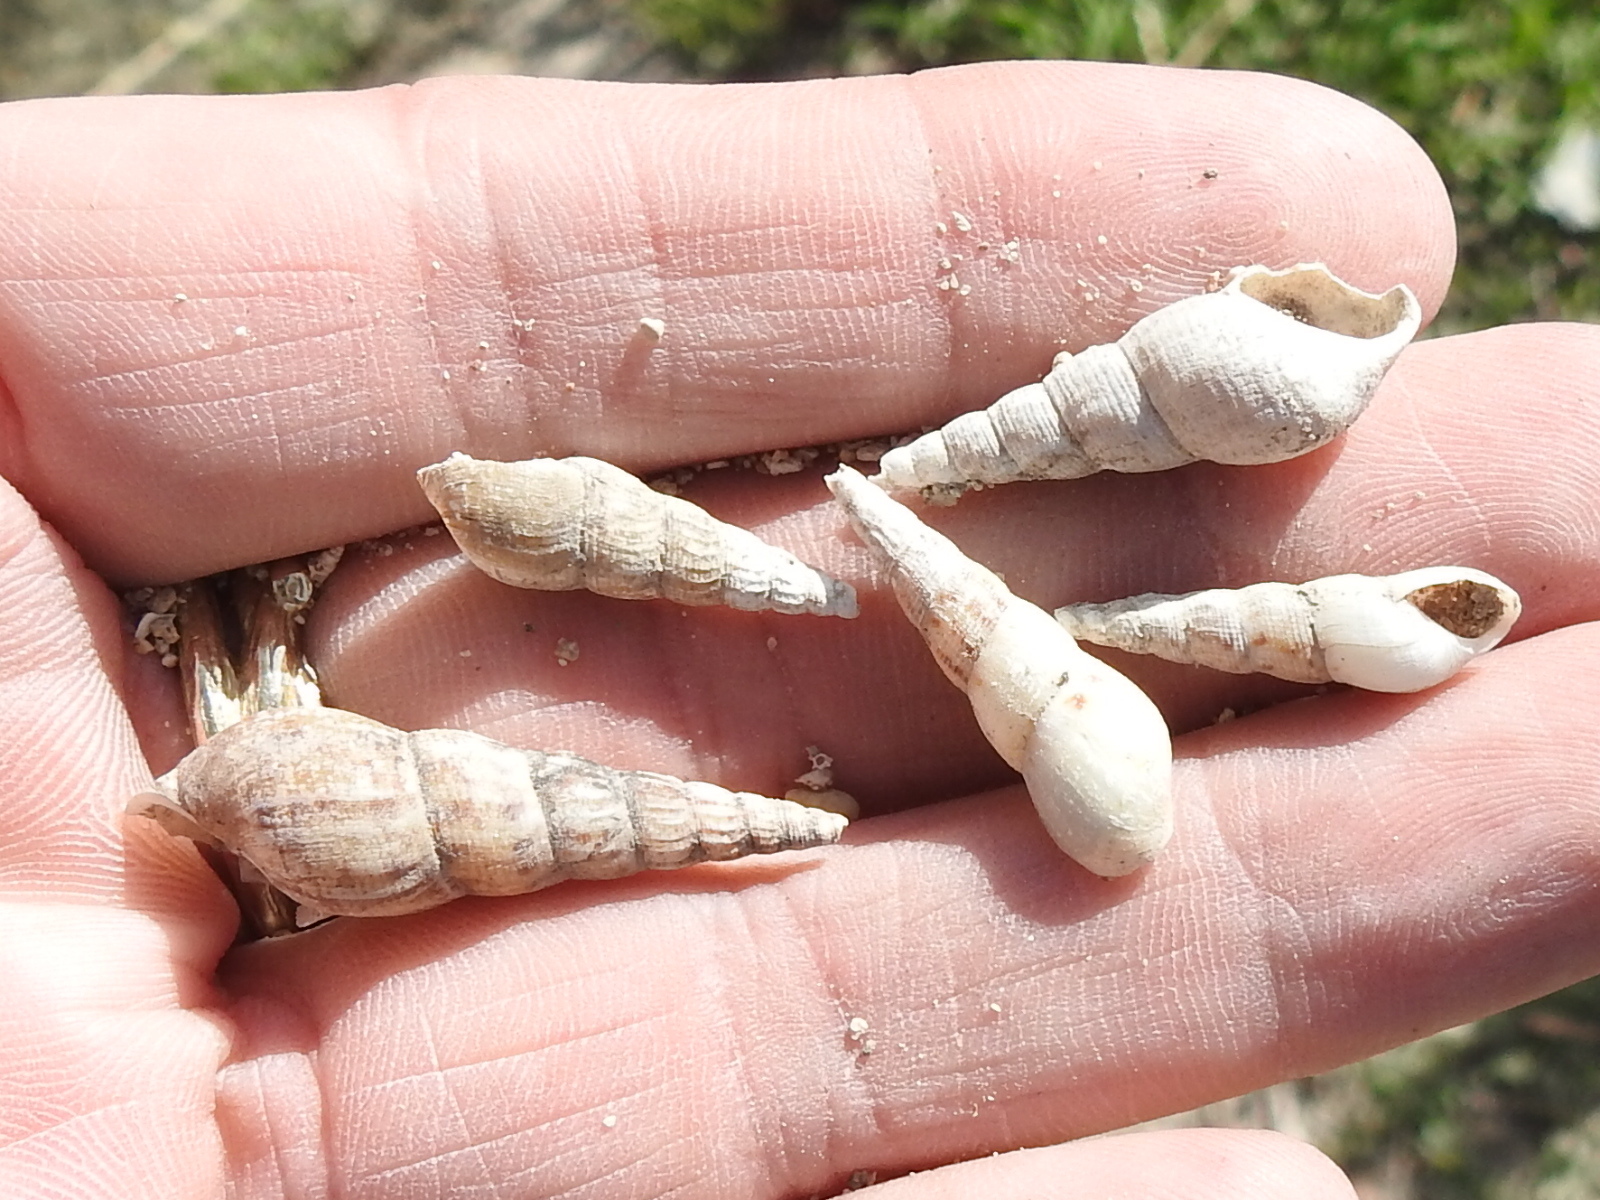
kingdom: Animalia
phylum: Mollusca
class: Gastropoda
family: Thiaridae
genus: Melanoides
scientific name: Melanoides tuberculata
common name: Red-rim melania
